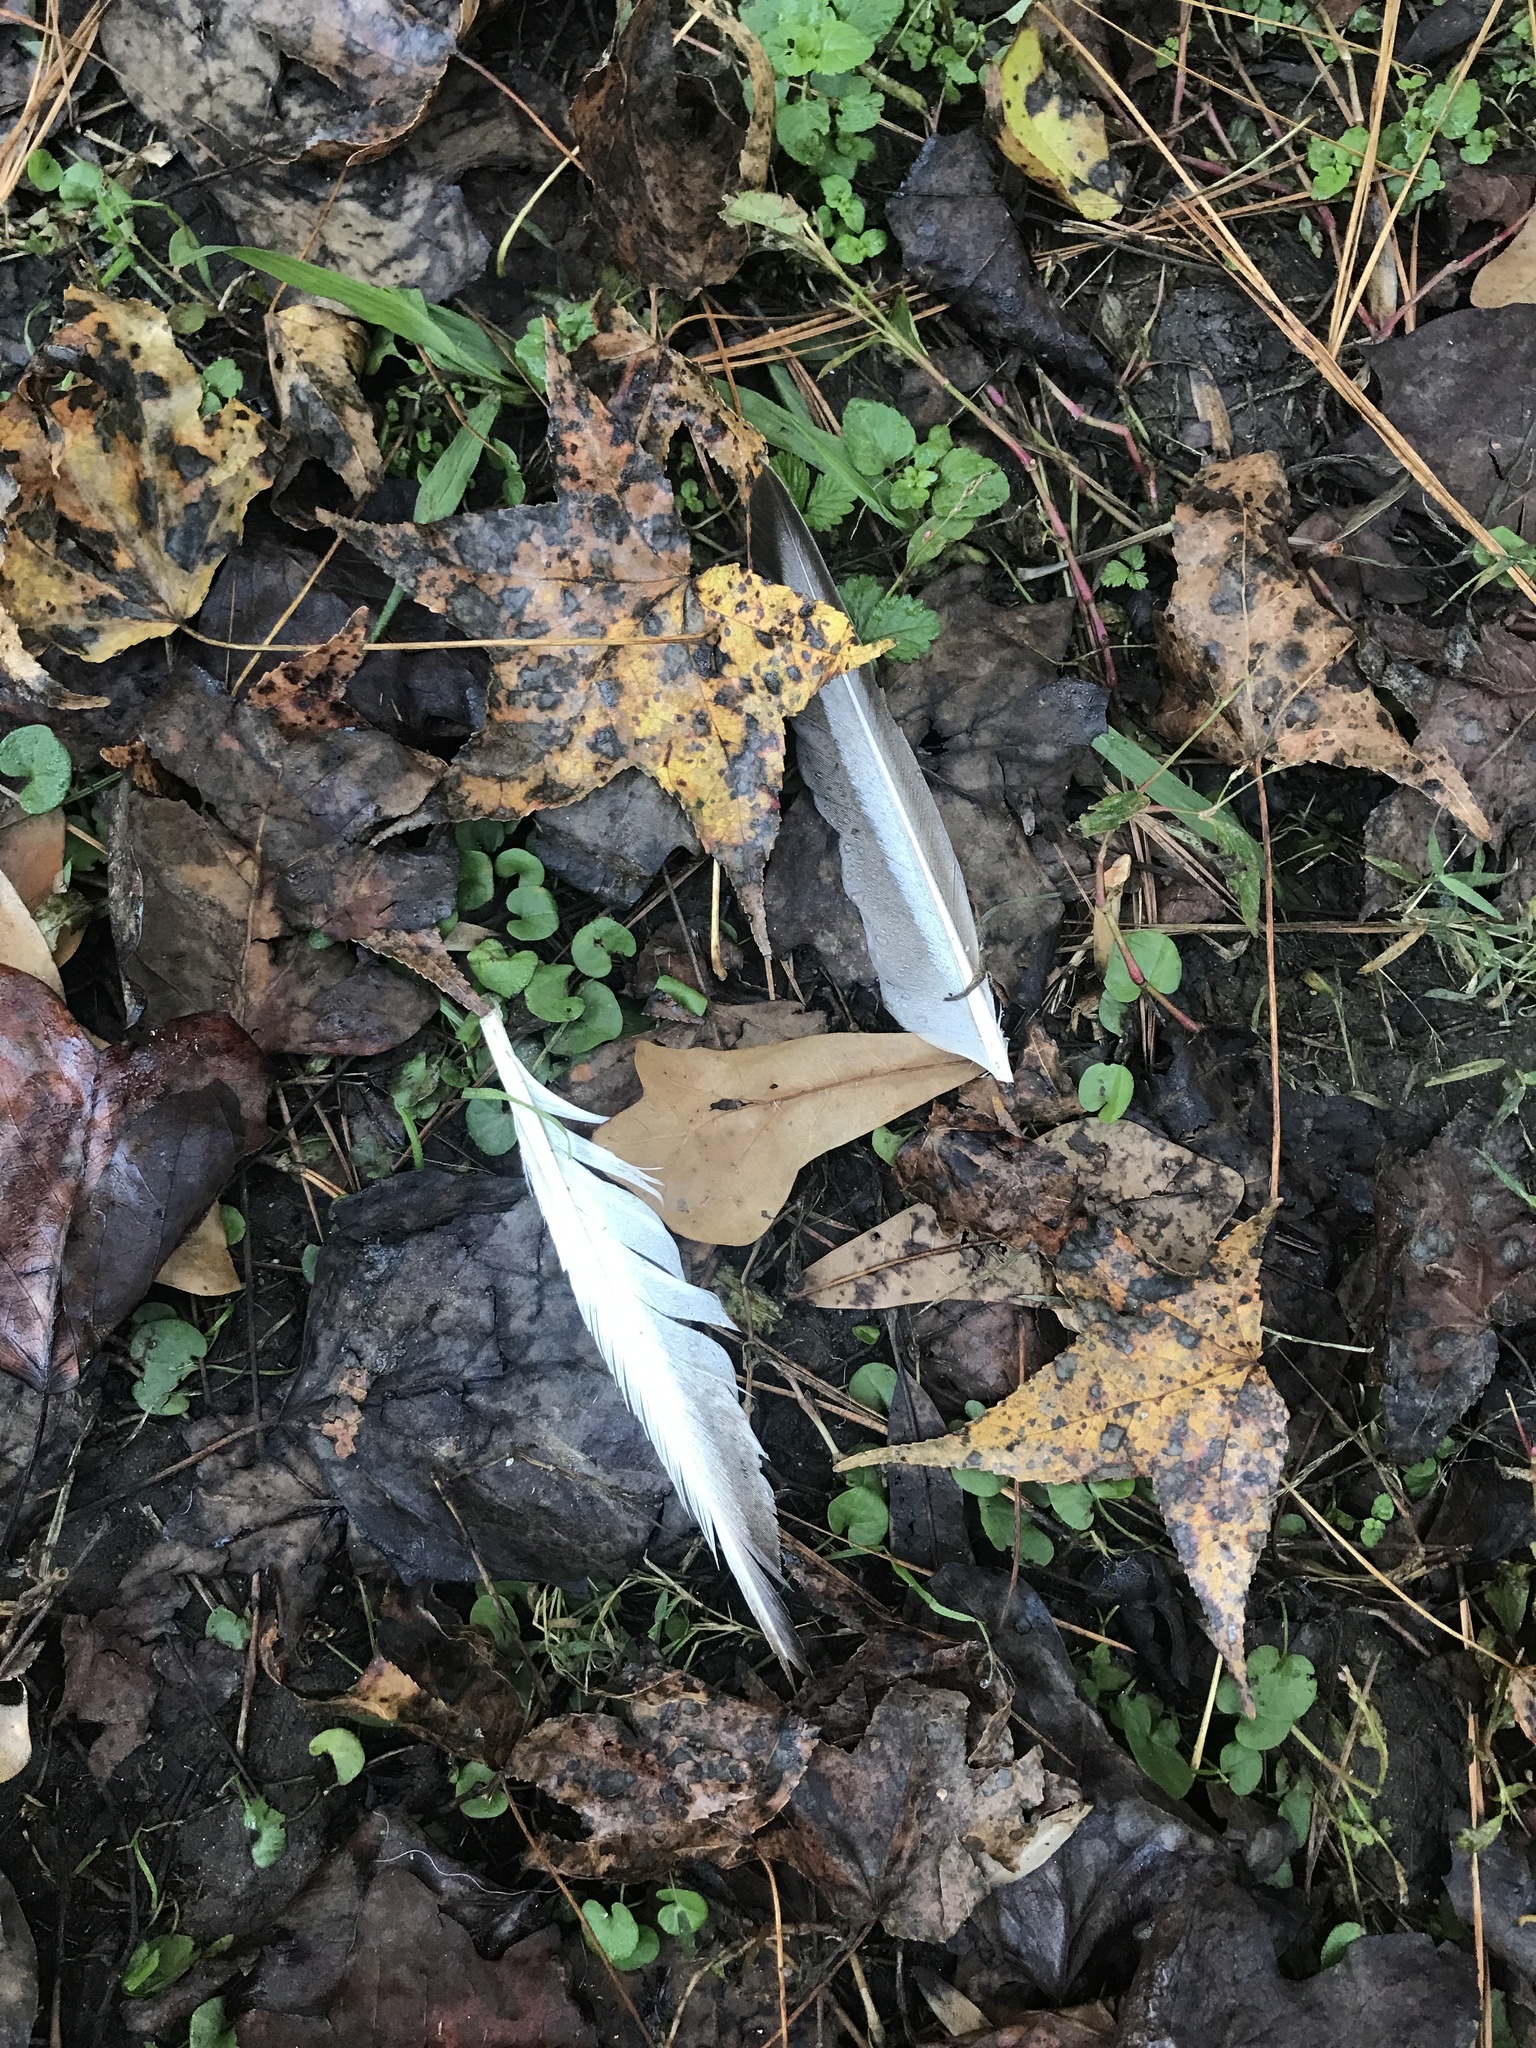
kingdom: Animalia
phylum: Chordata
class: Aves
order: Anseriformes
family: Anatidae
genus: Anas
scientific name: Anas platyrhynchos
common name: Mallard
